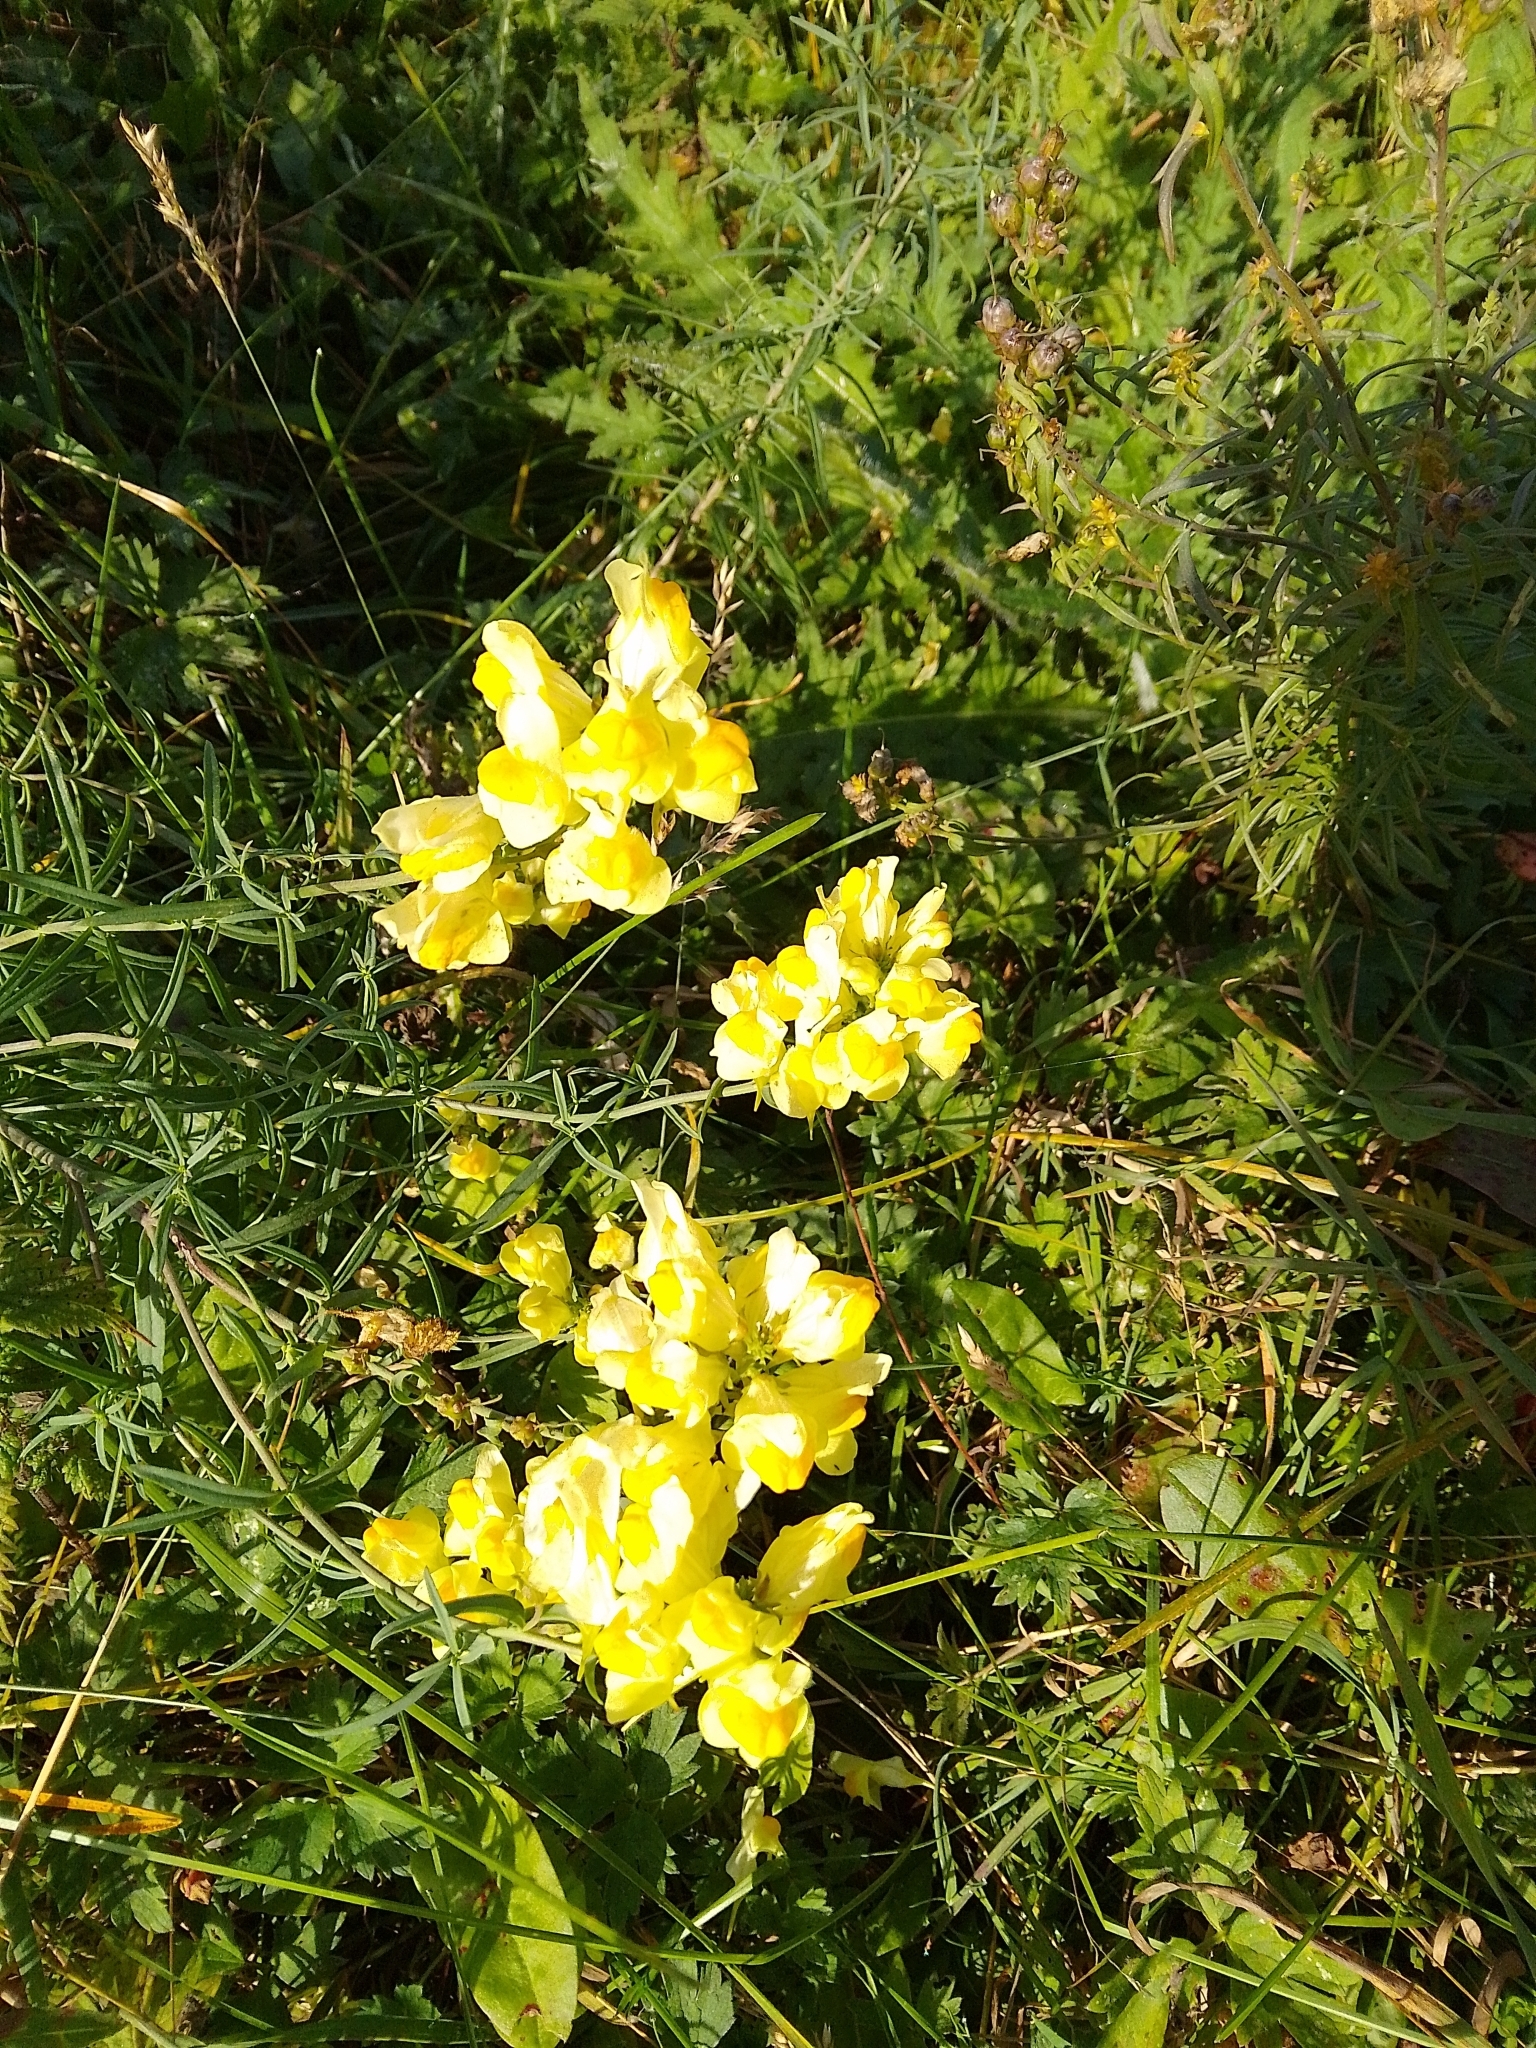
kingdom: Plantae
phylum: Tracheophyta
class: Magnoliopsida
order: Lamiales
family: Plantaginaceae
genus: Linaria
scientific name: Linaria vulgaris
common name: Butter and eggs
